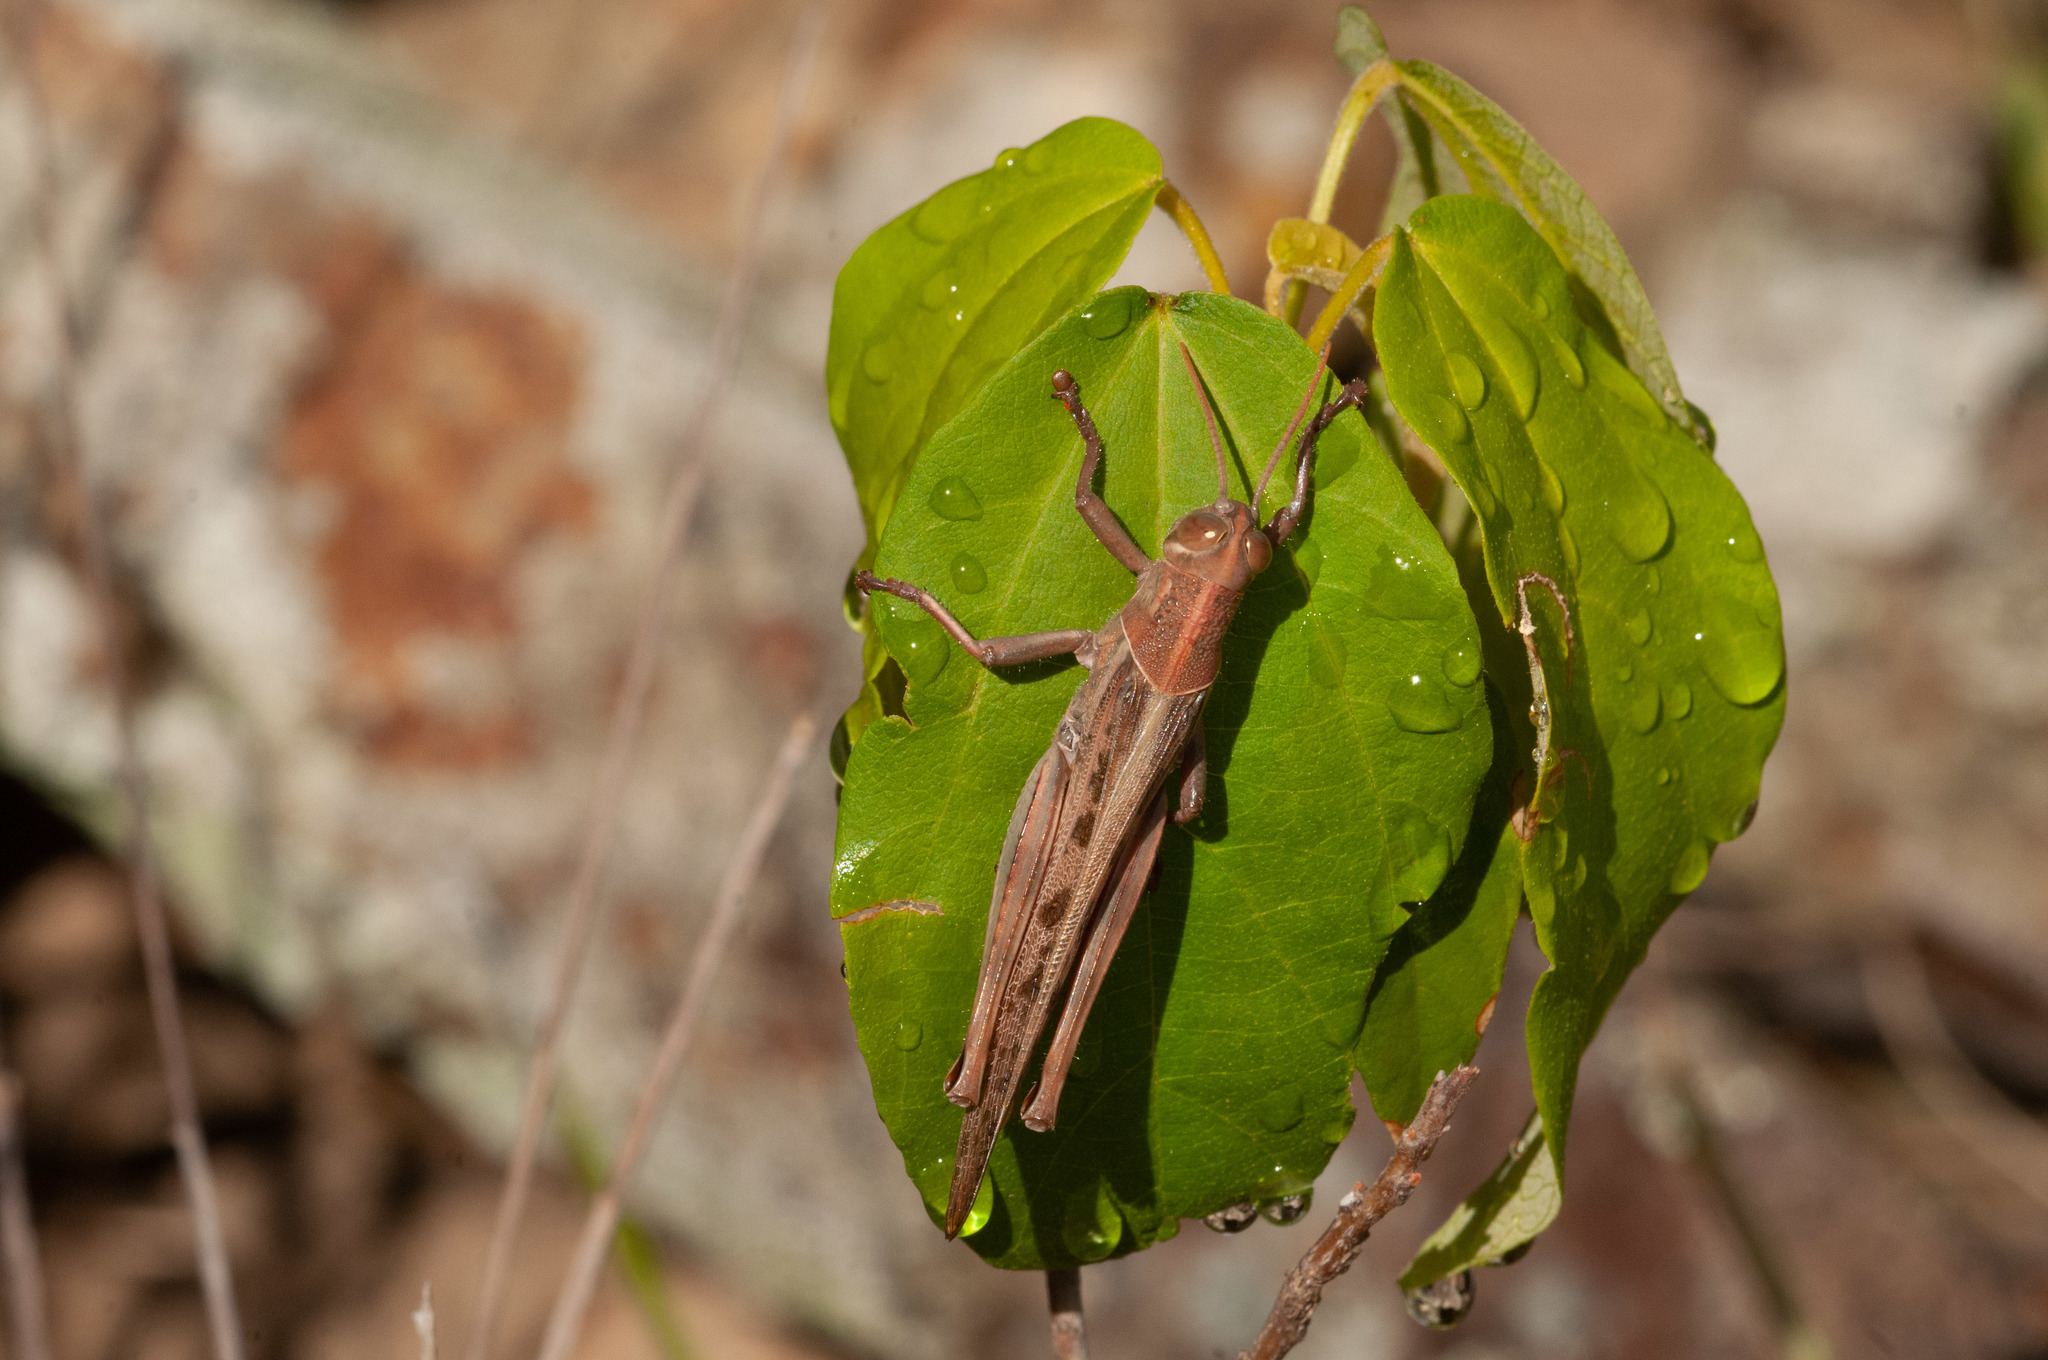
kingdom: Animalia
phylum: Arthropoda
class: Insecta
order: Orthoptera
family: Acrididae
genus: Austracris
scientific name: Austracris proxima
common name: Confusing spur-throated locust
